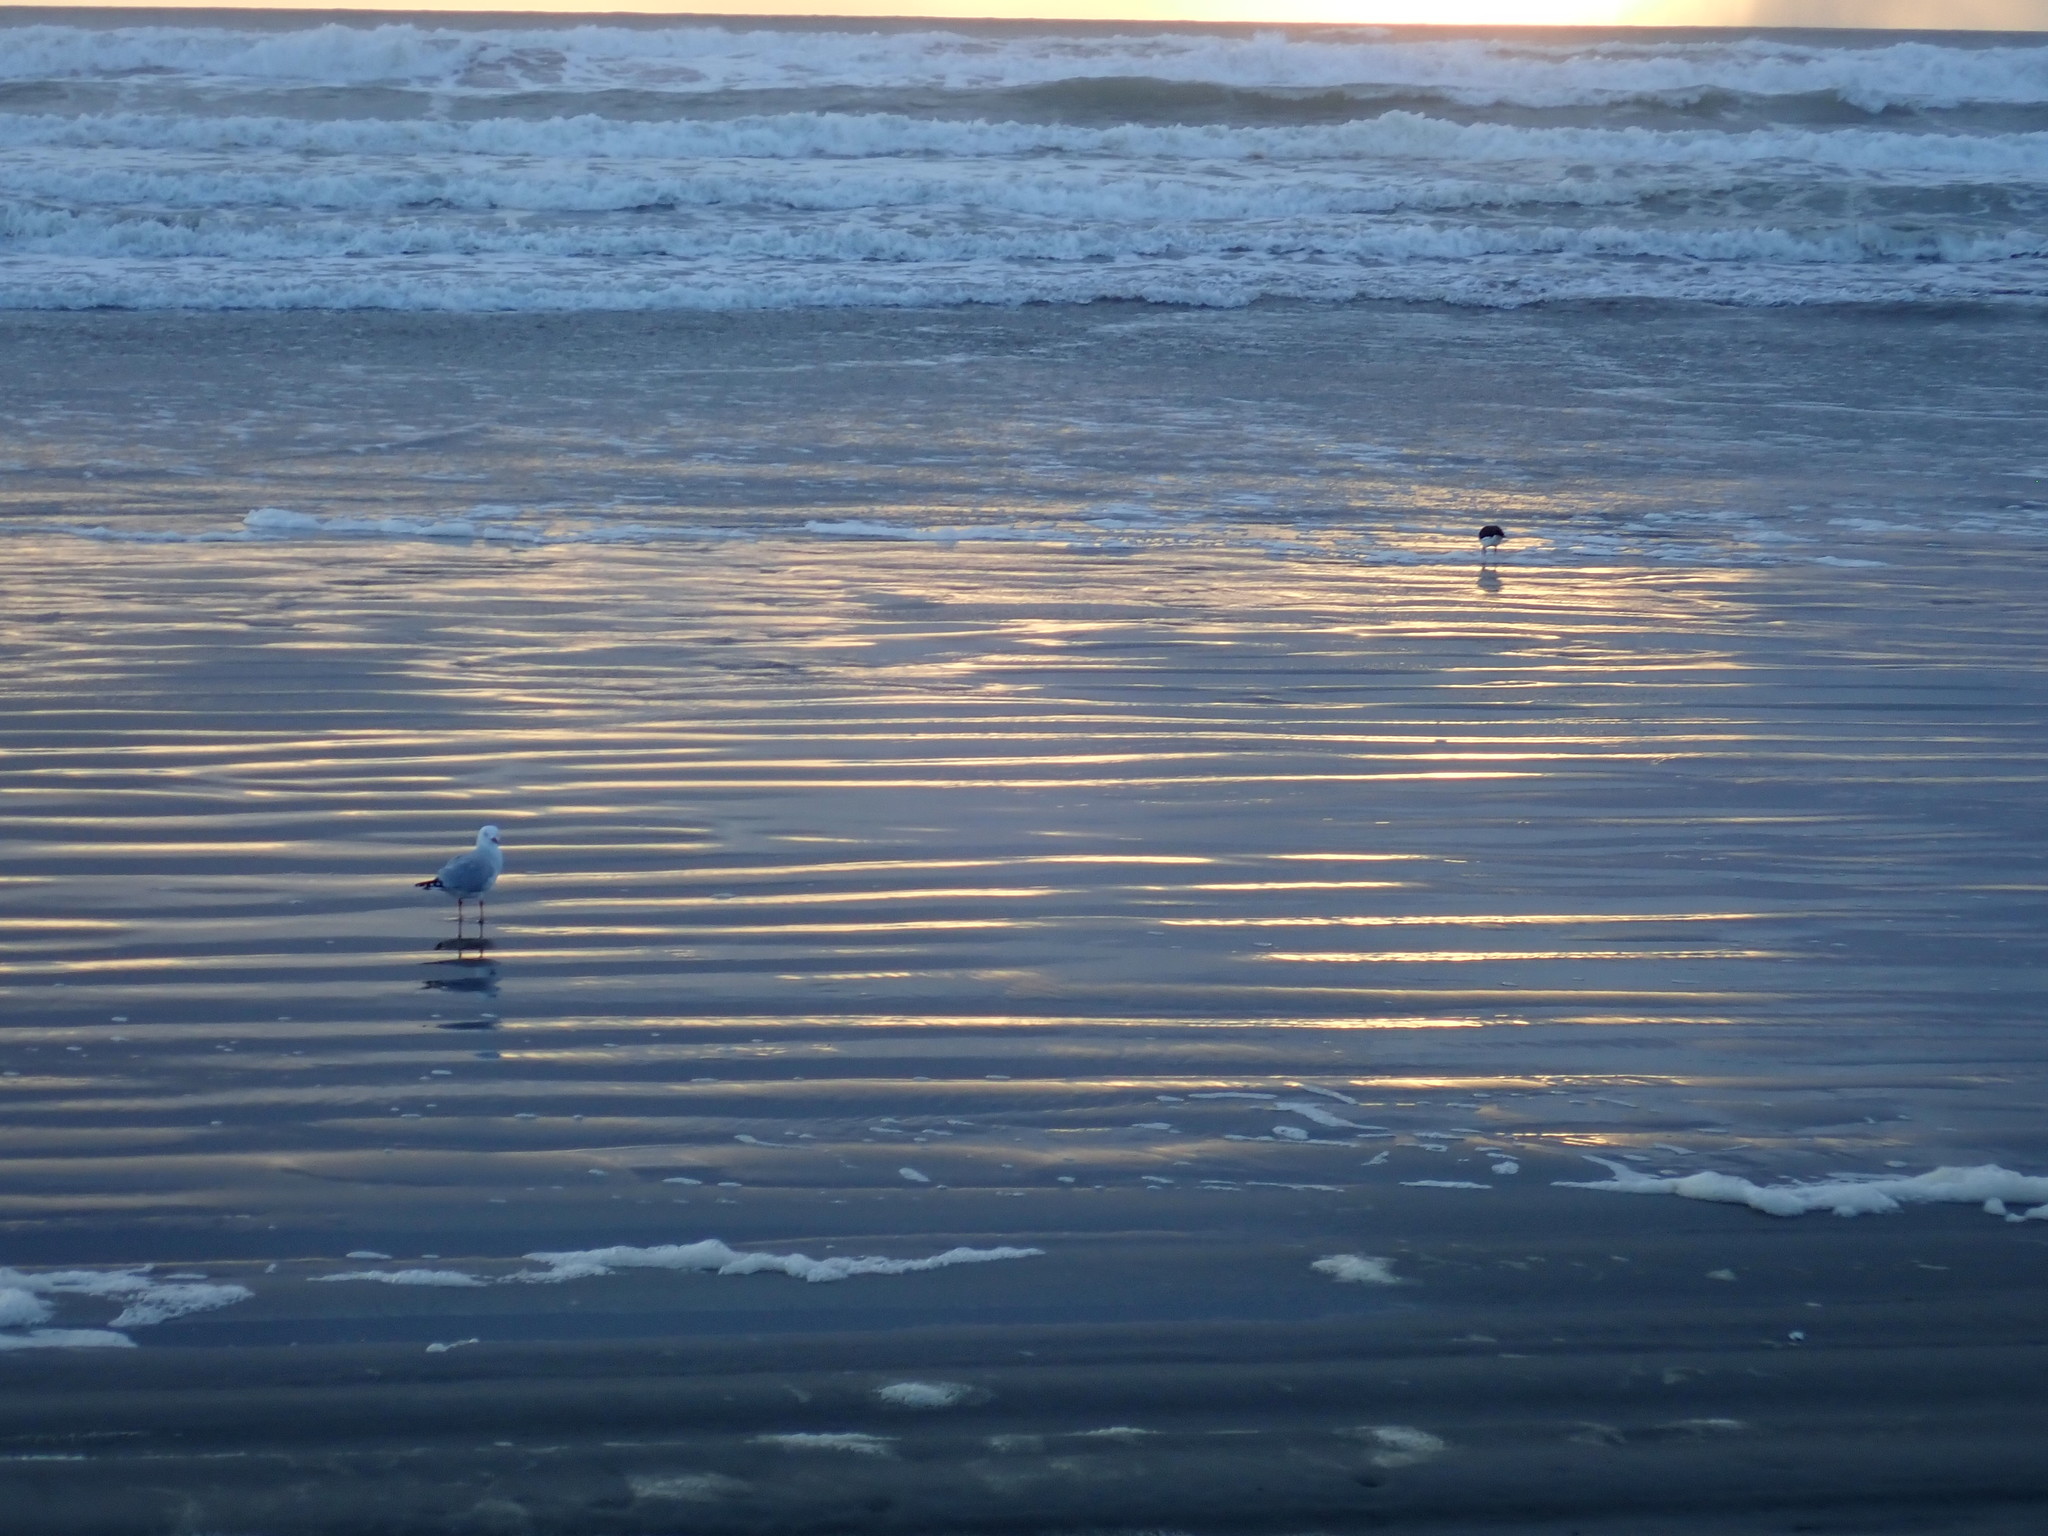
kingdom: Animalia
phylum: Chordata
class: Aves
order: Charadriiformes
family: Haematopodidae
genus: Haematopus
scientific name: Haematopus finschi
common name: South island oystercatcher
